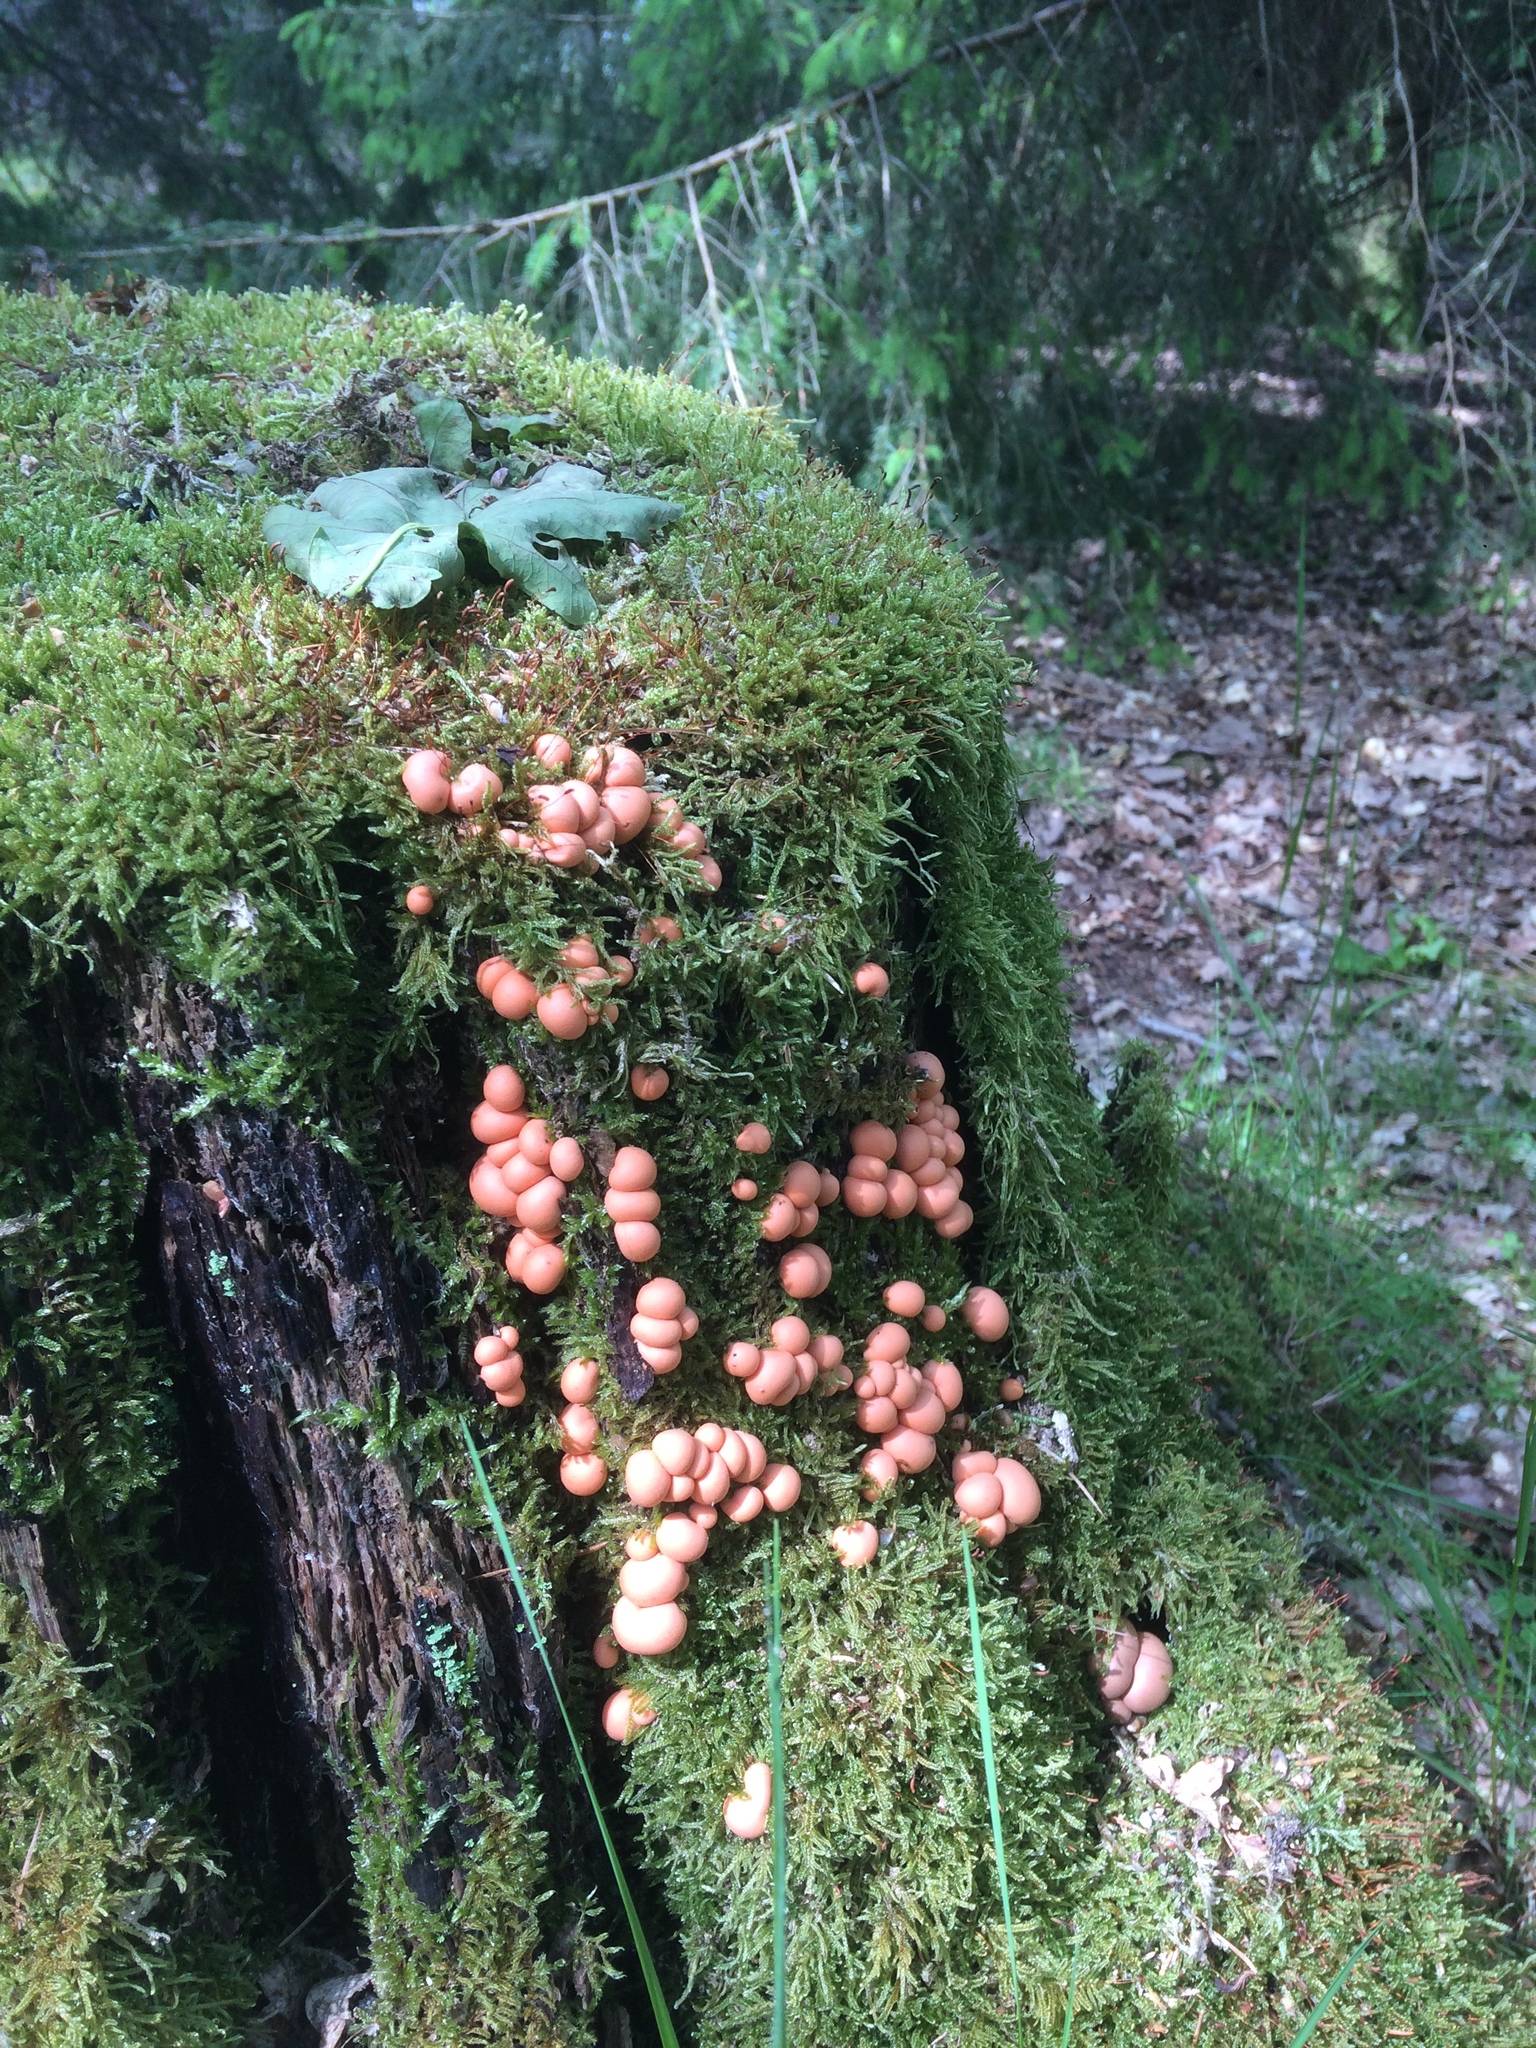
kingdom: Protozoa
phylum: Mycetozoa
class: Myxomycetes
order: Cribrariales
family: Tubiferaceae
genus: Lycogala
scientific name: Lycogala epidendrum
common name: Wolf's milk
